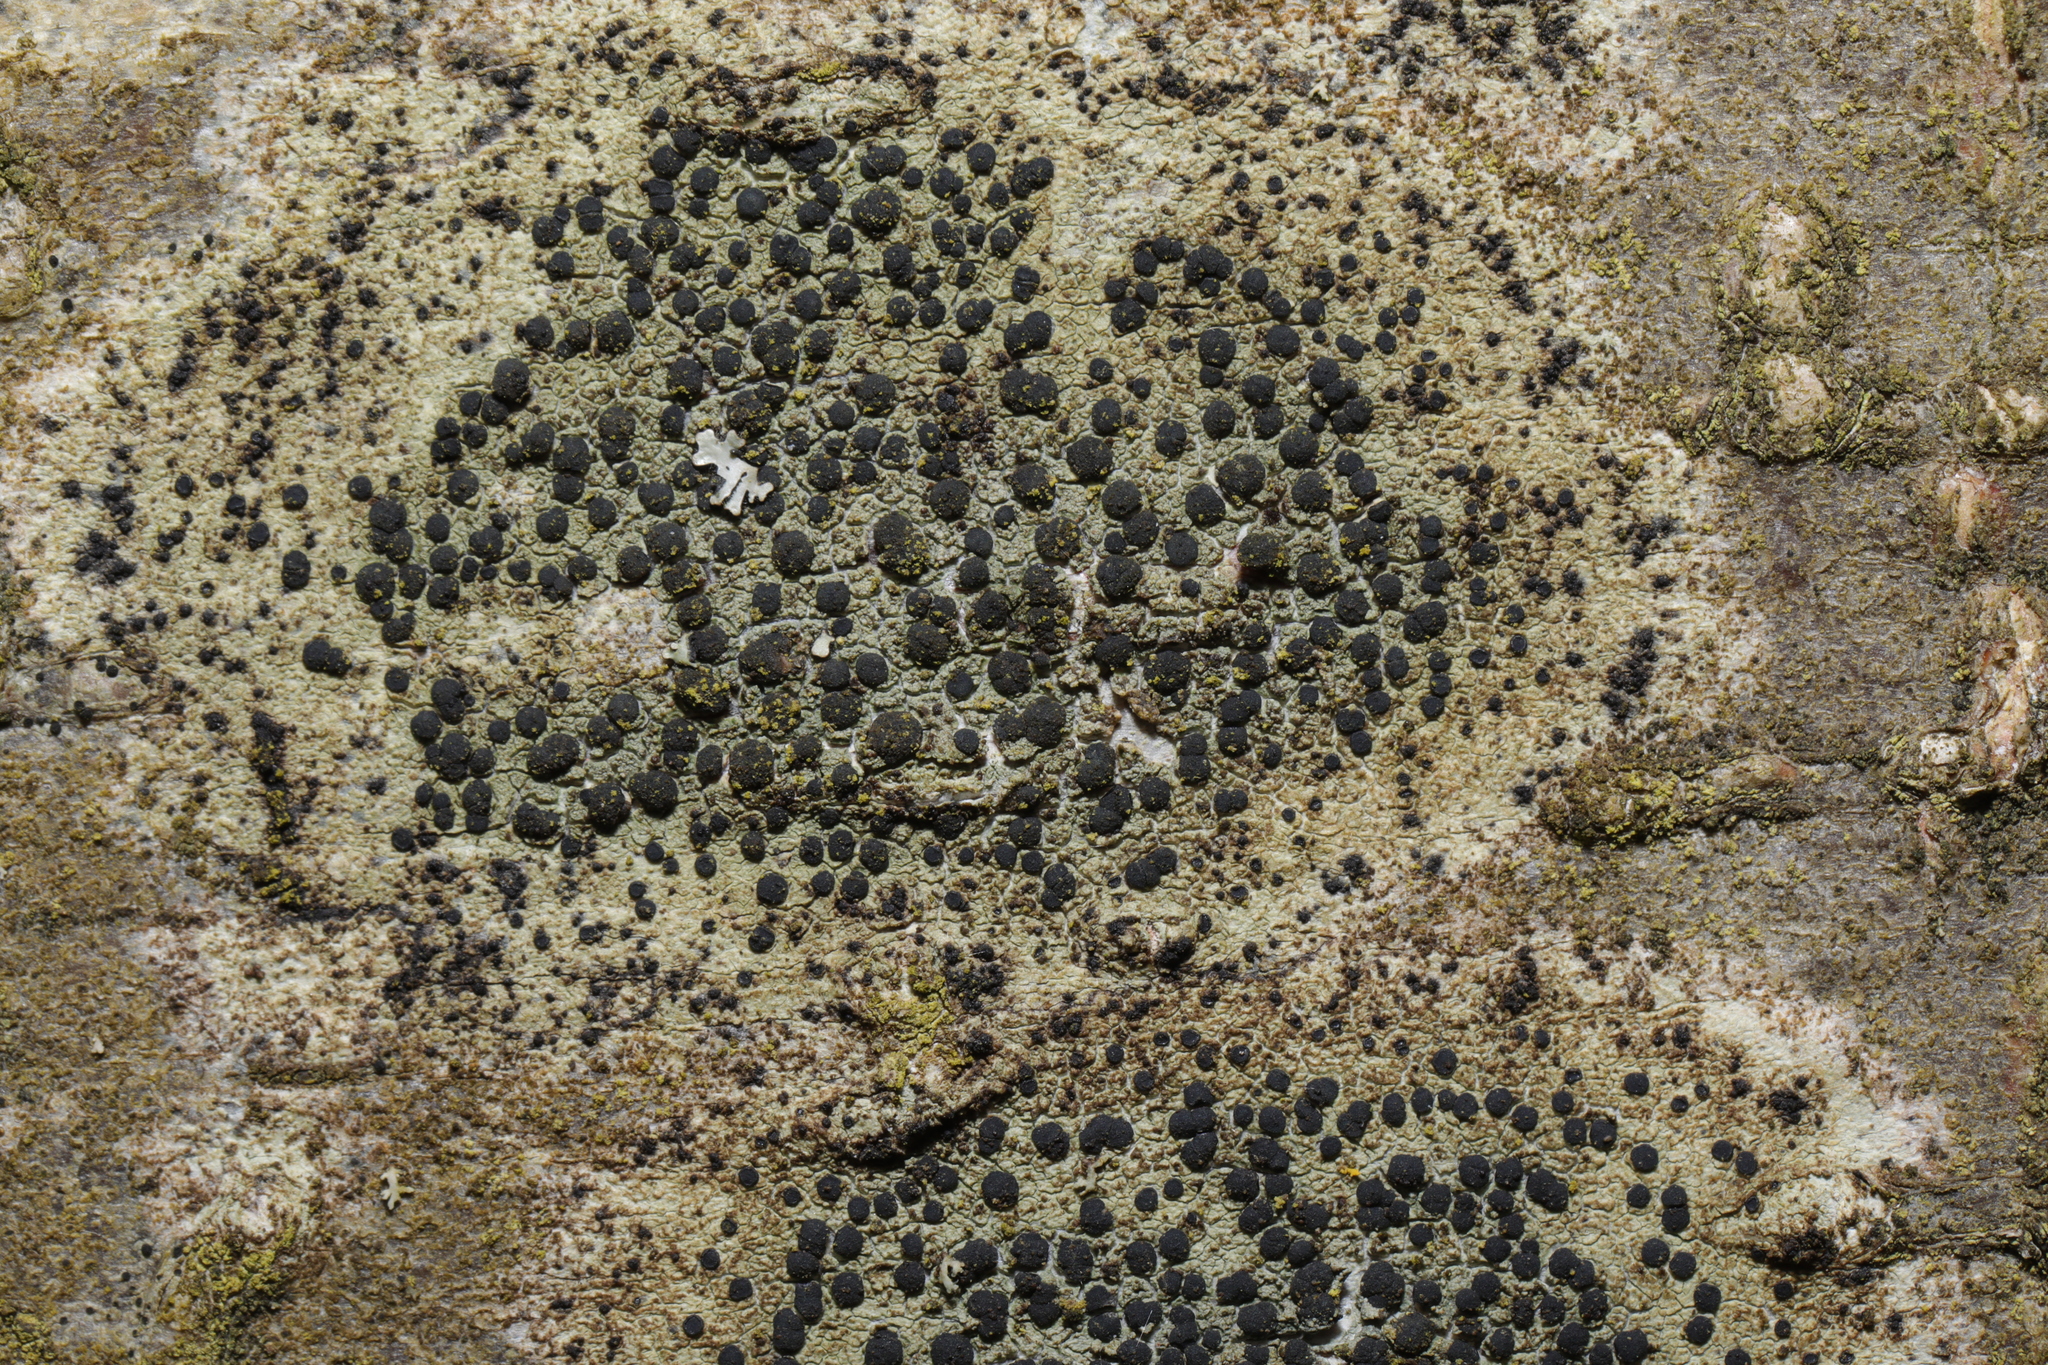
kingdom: Fungi
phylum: Ascomycota
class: Lecanoromycetes
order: Lecanorales
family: Lecanoraceae
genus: Lecidella
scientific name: Lecidella elaeochroma
